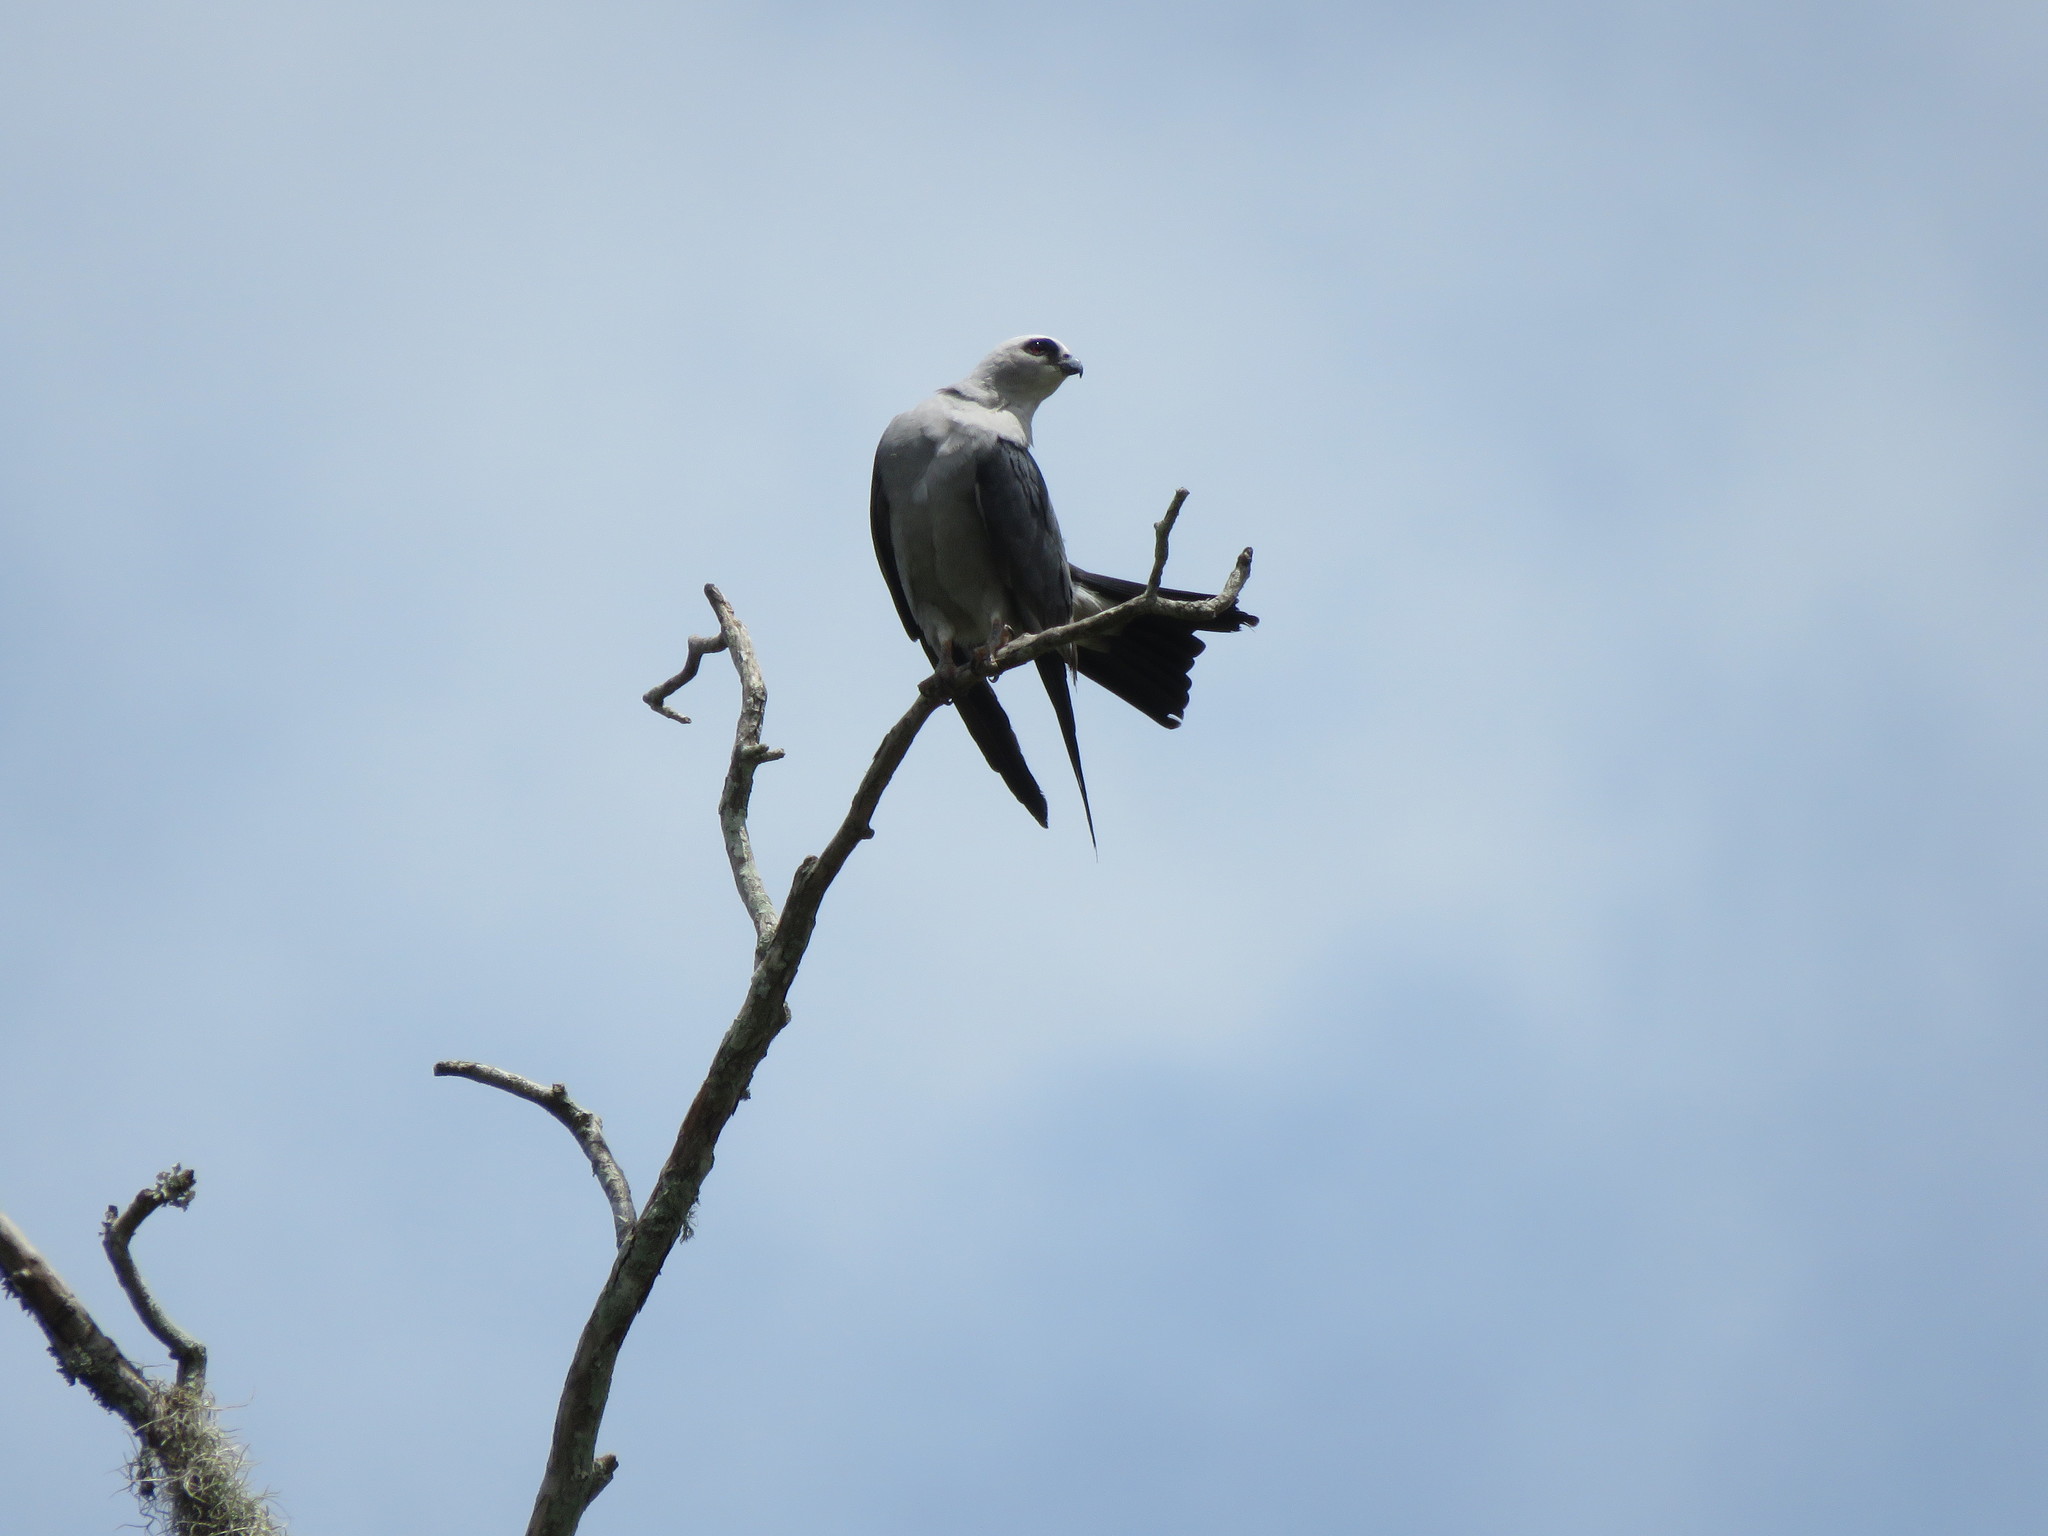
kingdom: Animalia
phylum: Chordata
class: Aves
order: Accipitriformes
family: Accipitridae
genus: Ictinia
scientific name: Ictinia mississippiensis
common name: Mississippi kite
